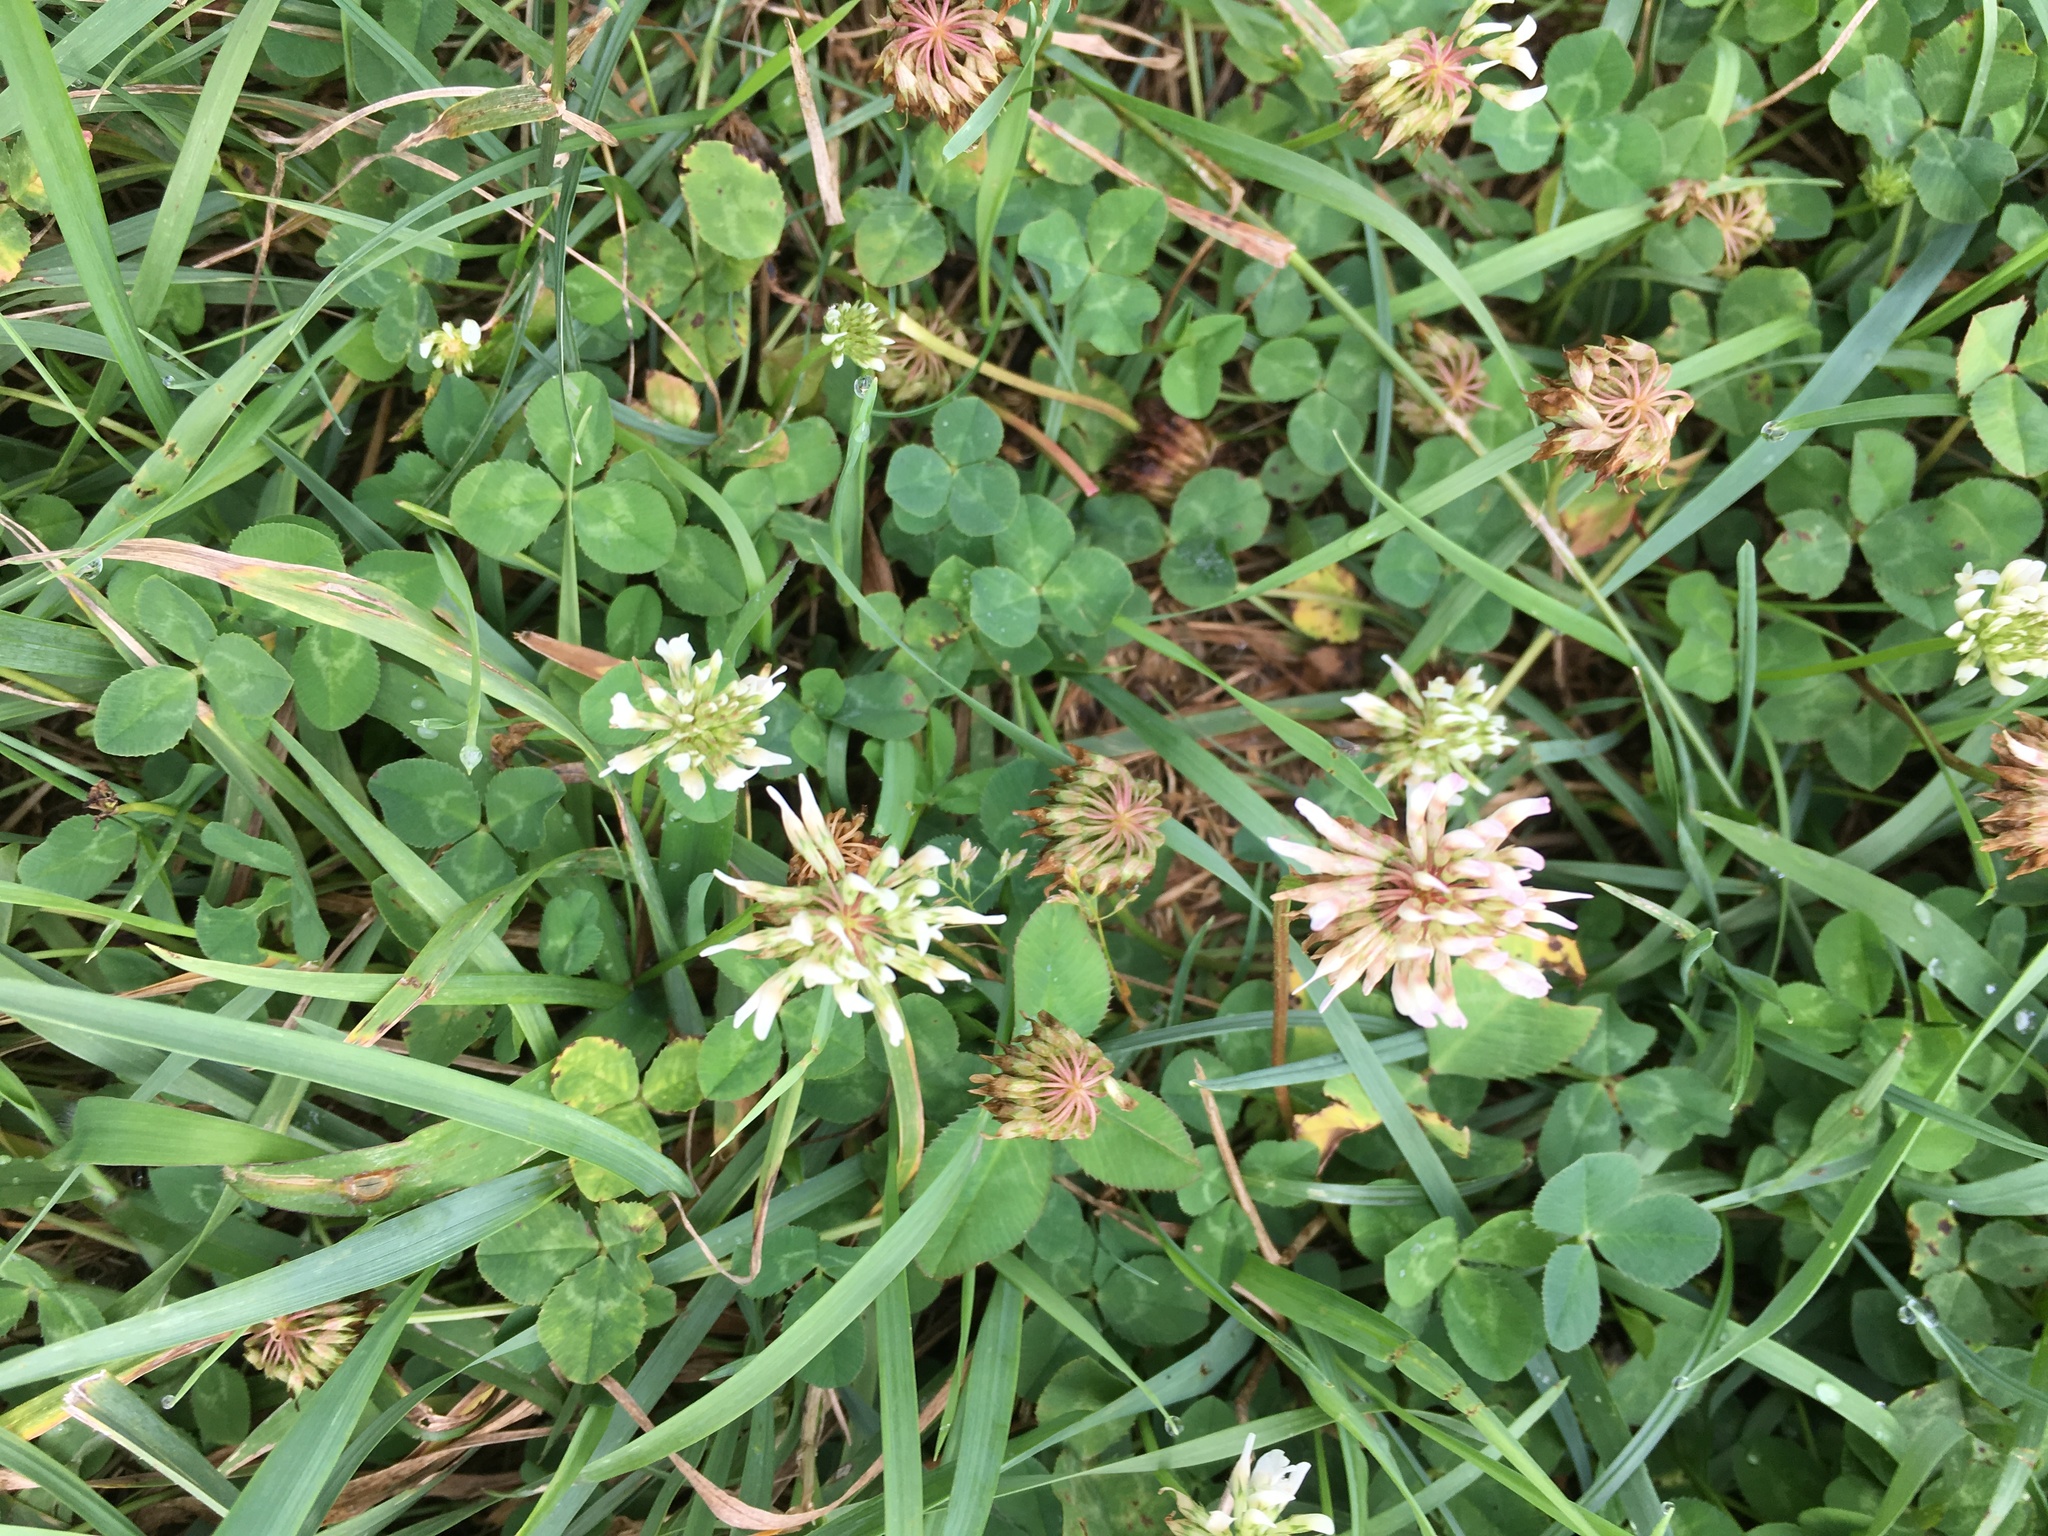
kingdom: Plantae
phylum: Tracheophyta
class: Magnoliopsida
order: Fabales
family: Fabaceae
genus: Trifolium
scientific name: Trifolium repens
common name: White clover
